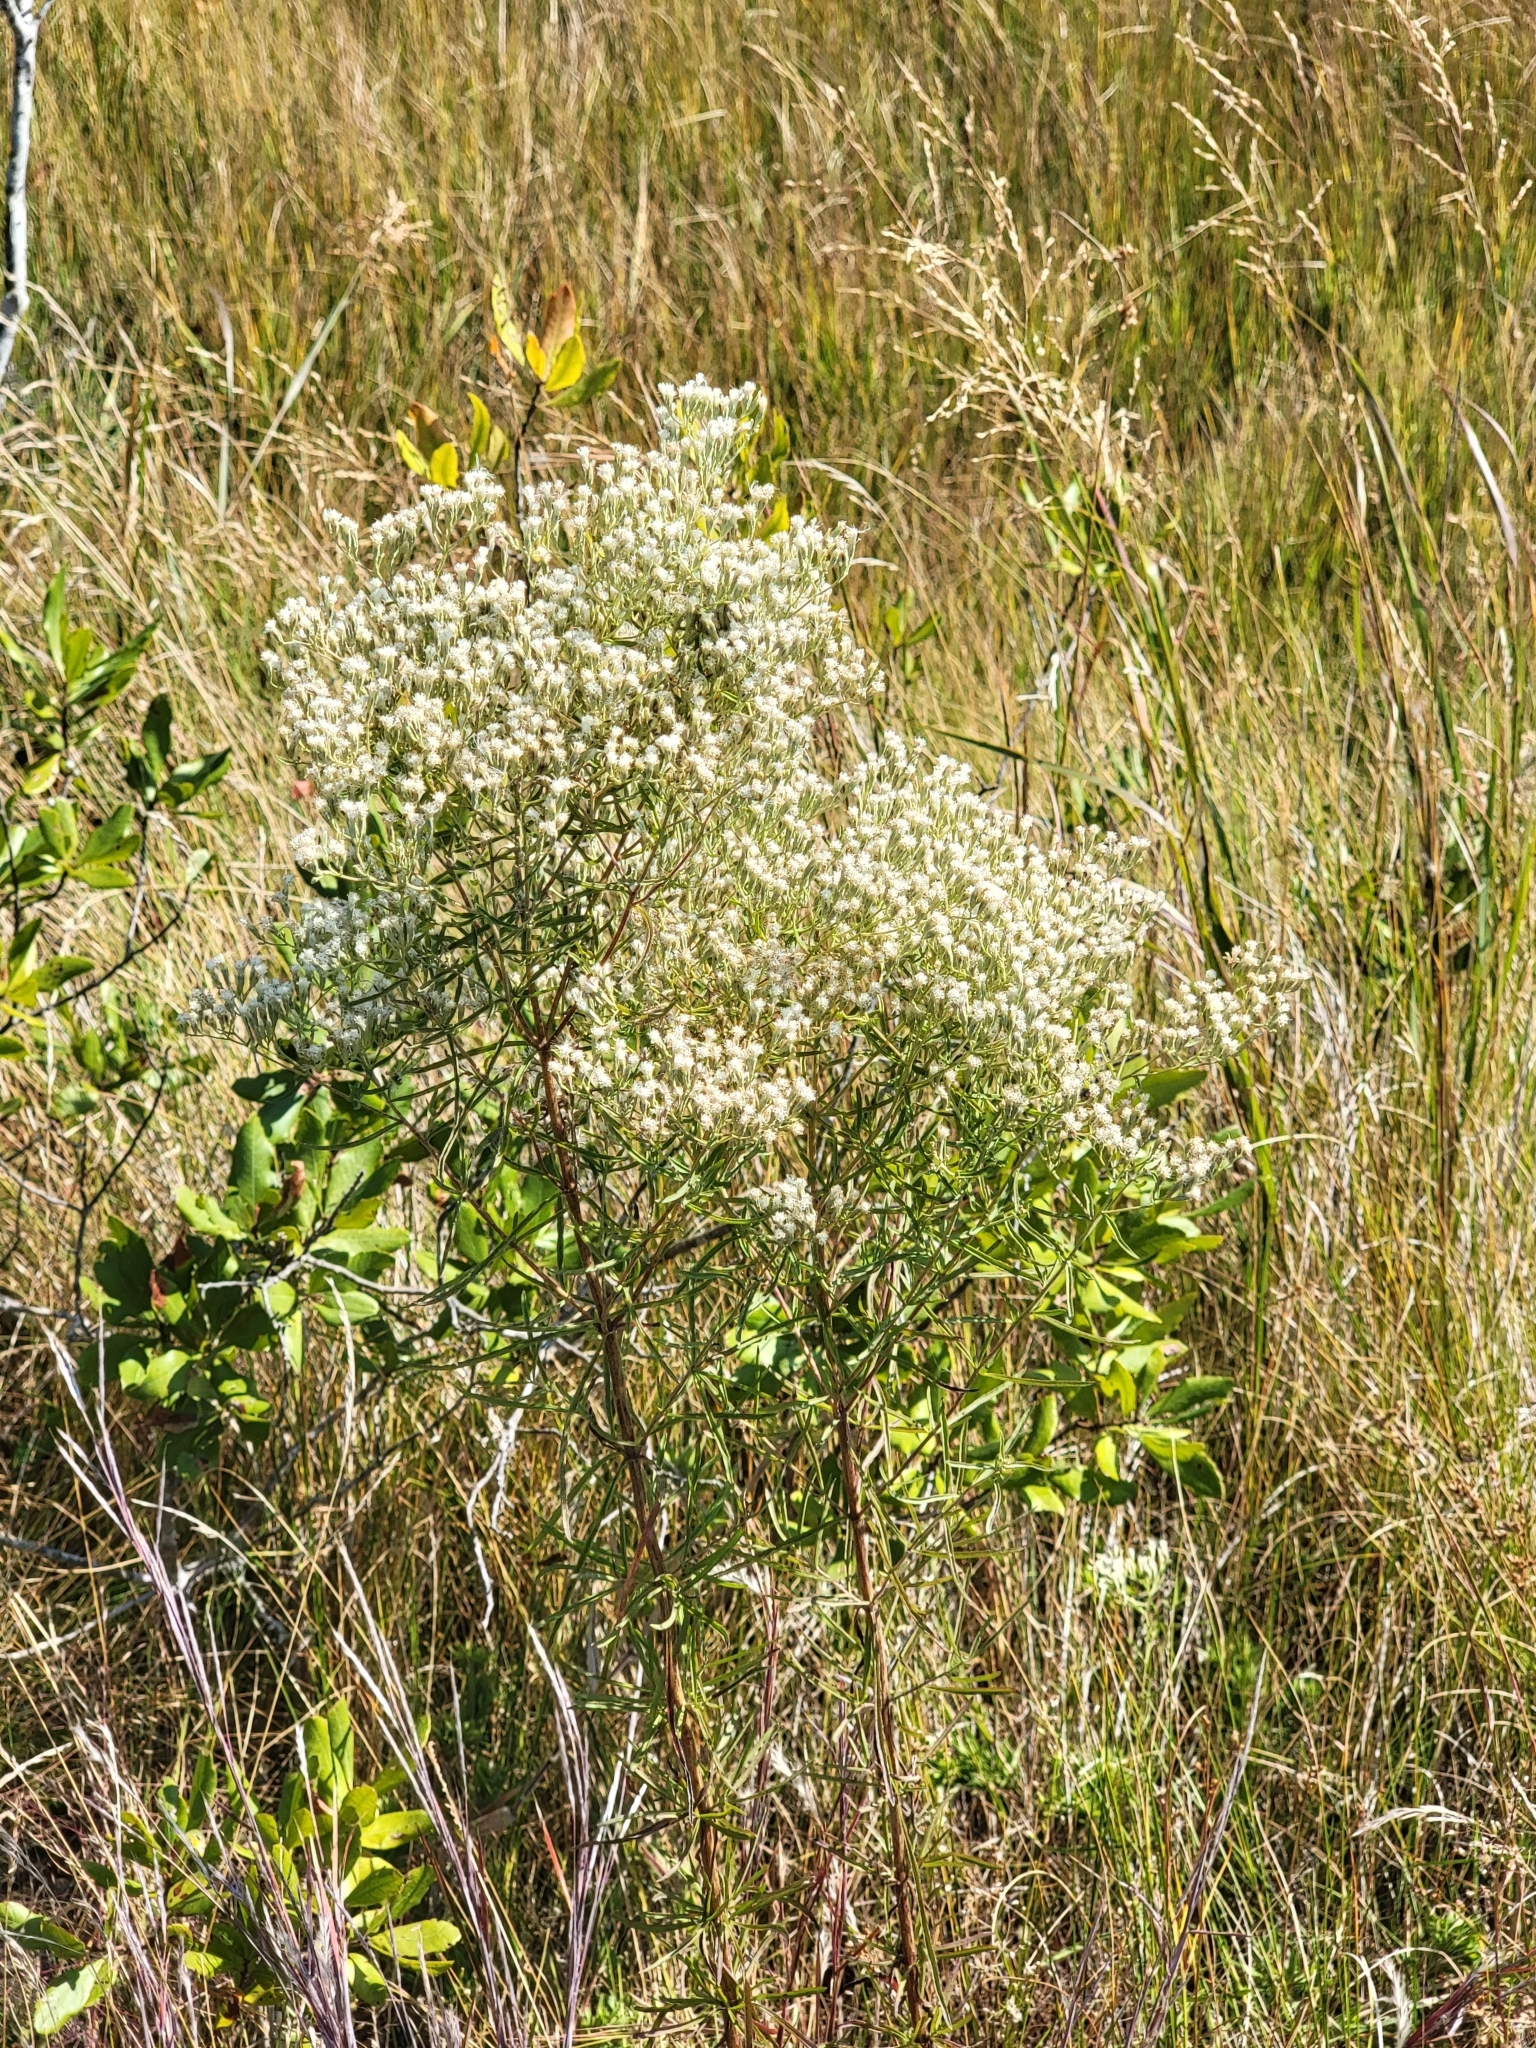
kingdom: Plantae
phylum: Tracheophyta
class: Magnoliopsida
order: Asterales
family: Asteraceae
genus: Eupatorium
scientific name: Eupatorium hyssopifolium
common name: Hyssop-leaf thoroughwort
